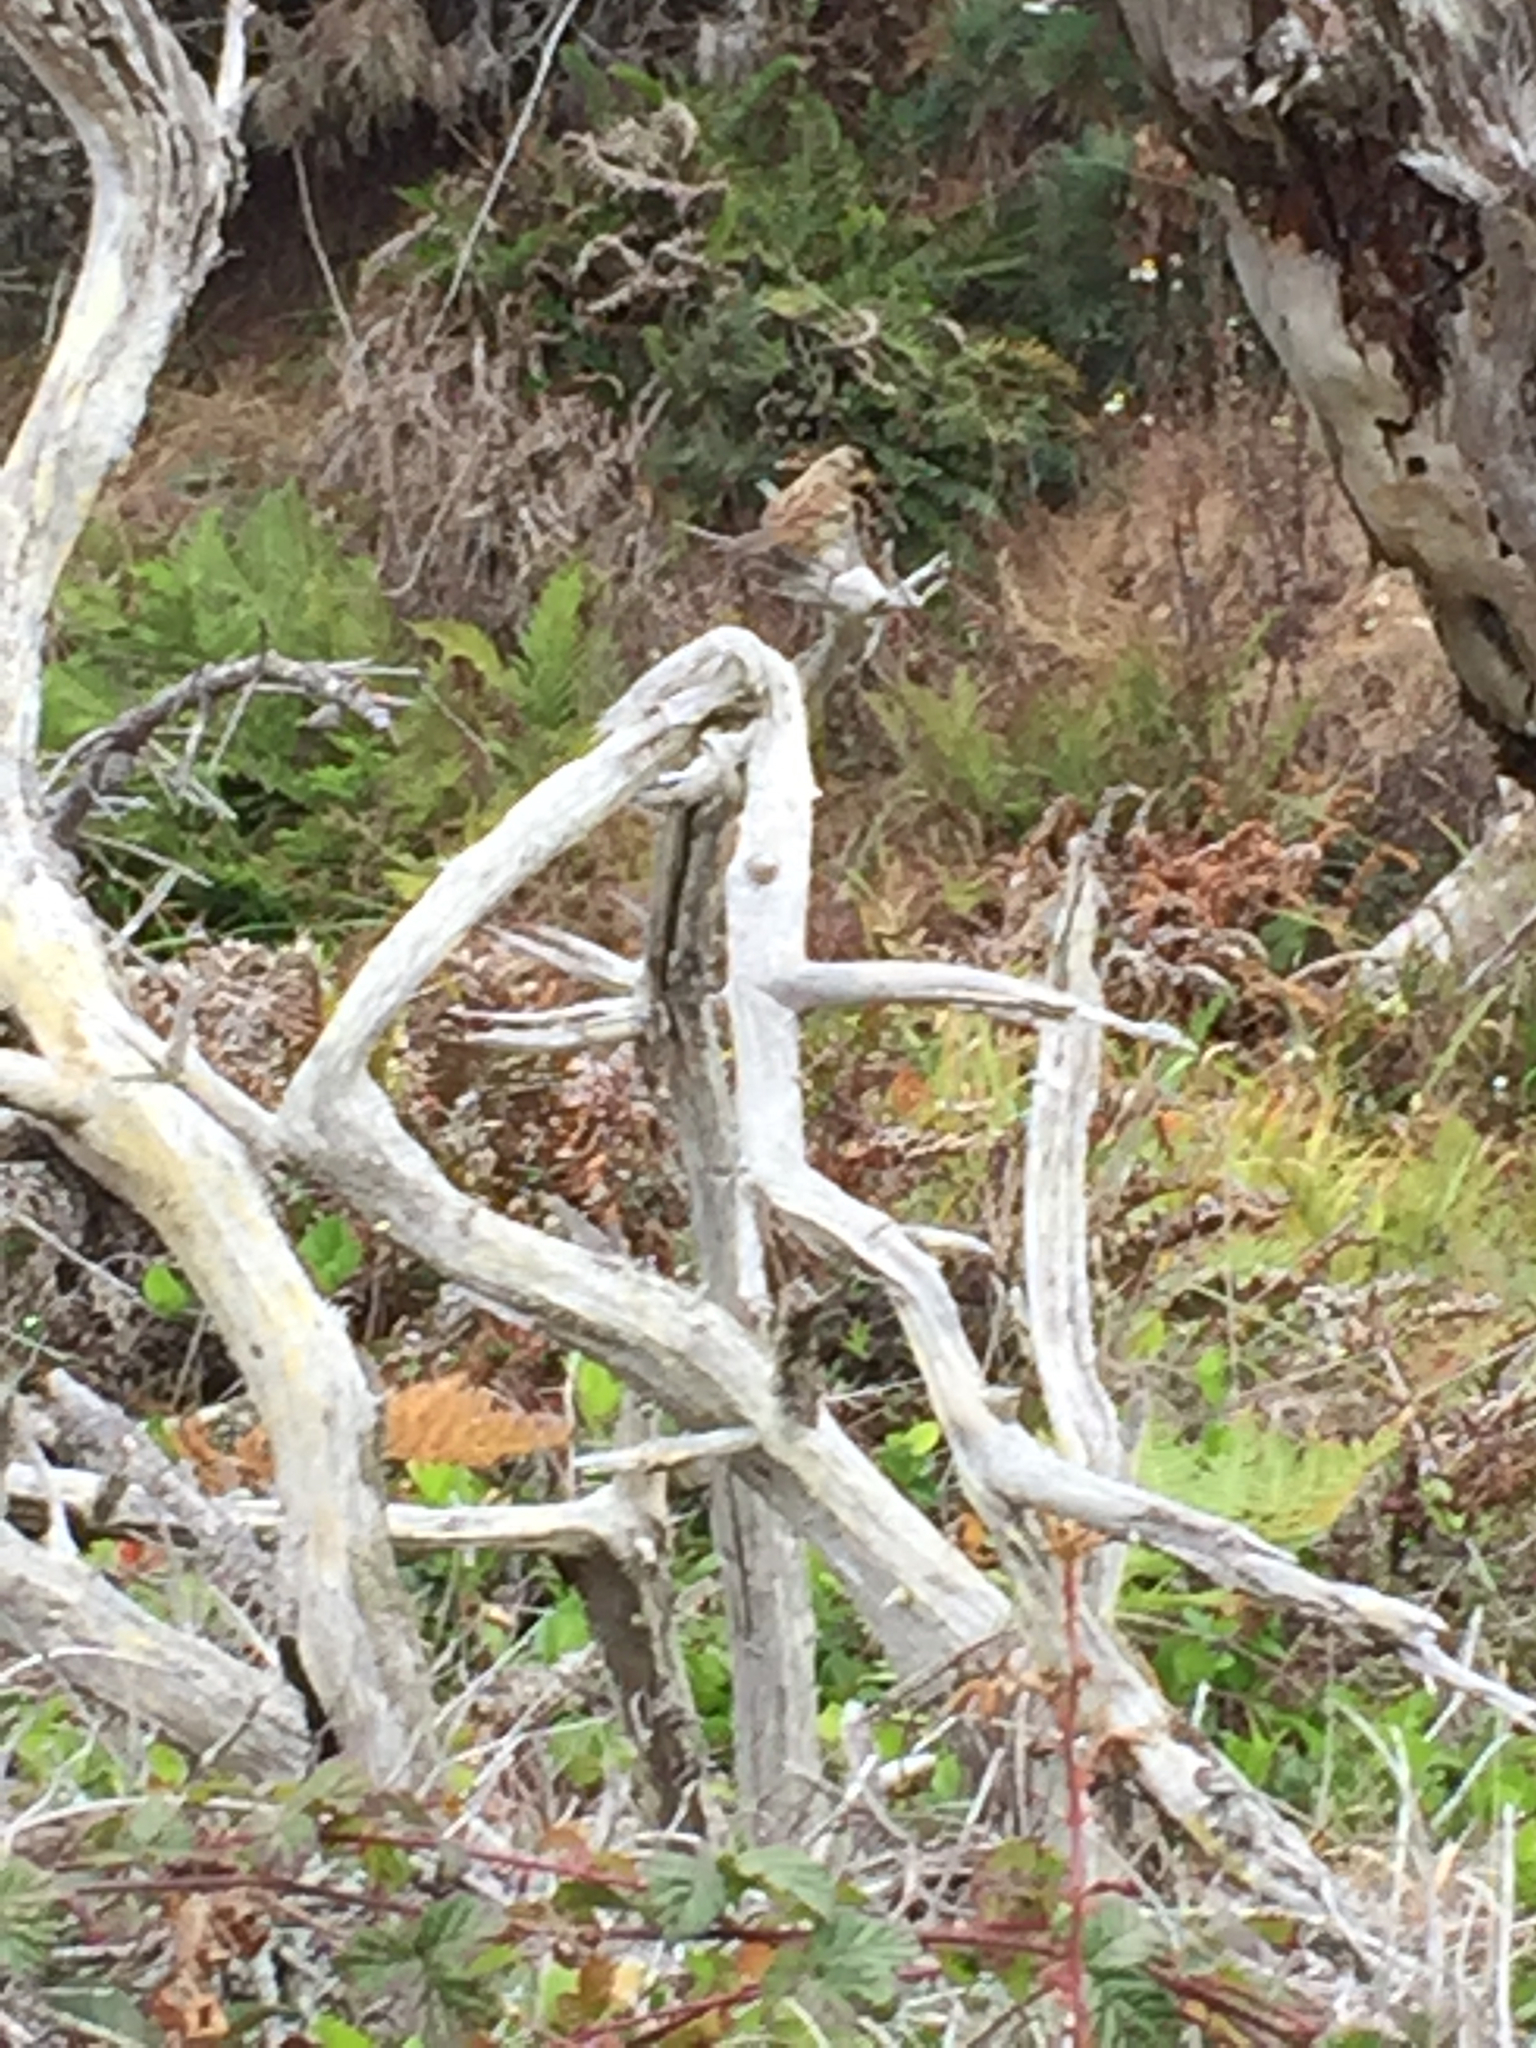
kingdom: Animalia
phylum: Chordata
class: Aves
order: Passeriformes
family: Passerellidae
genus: Zonotrichia
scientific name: Zonotrichia leucophrys
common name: White-crowned sparrow
